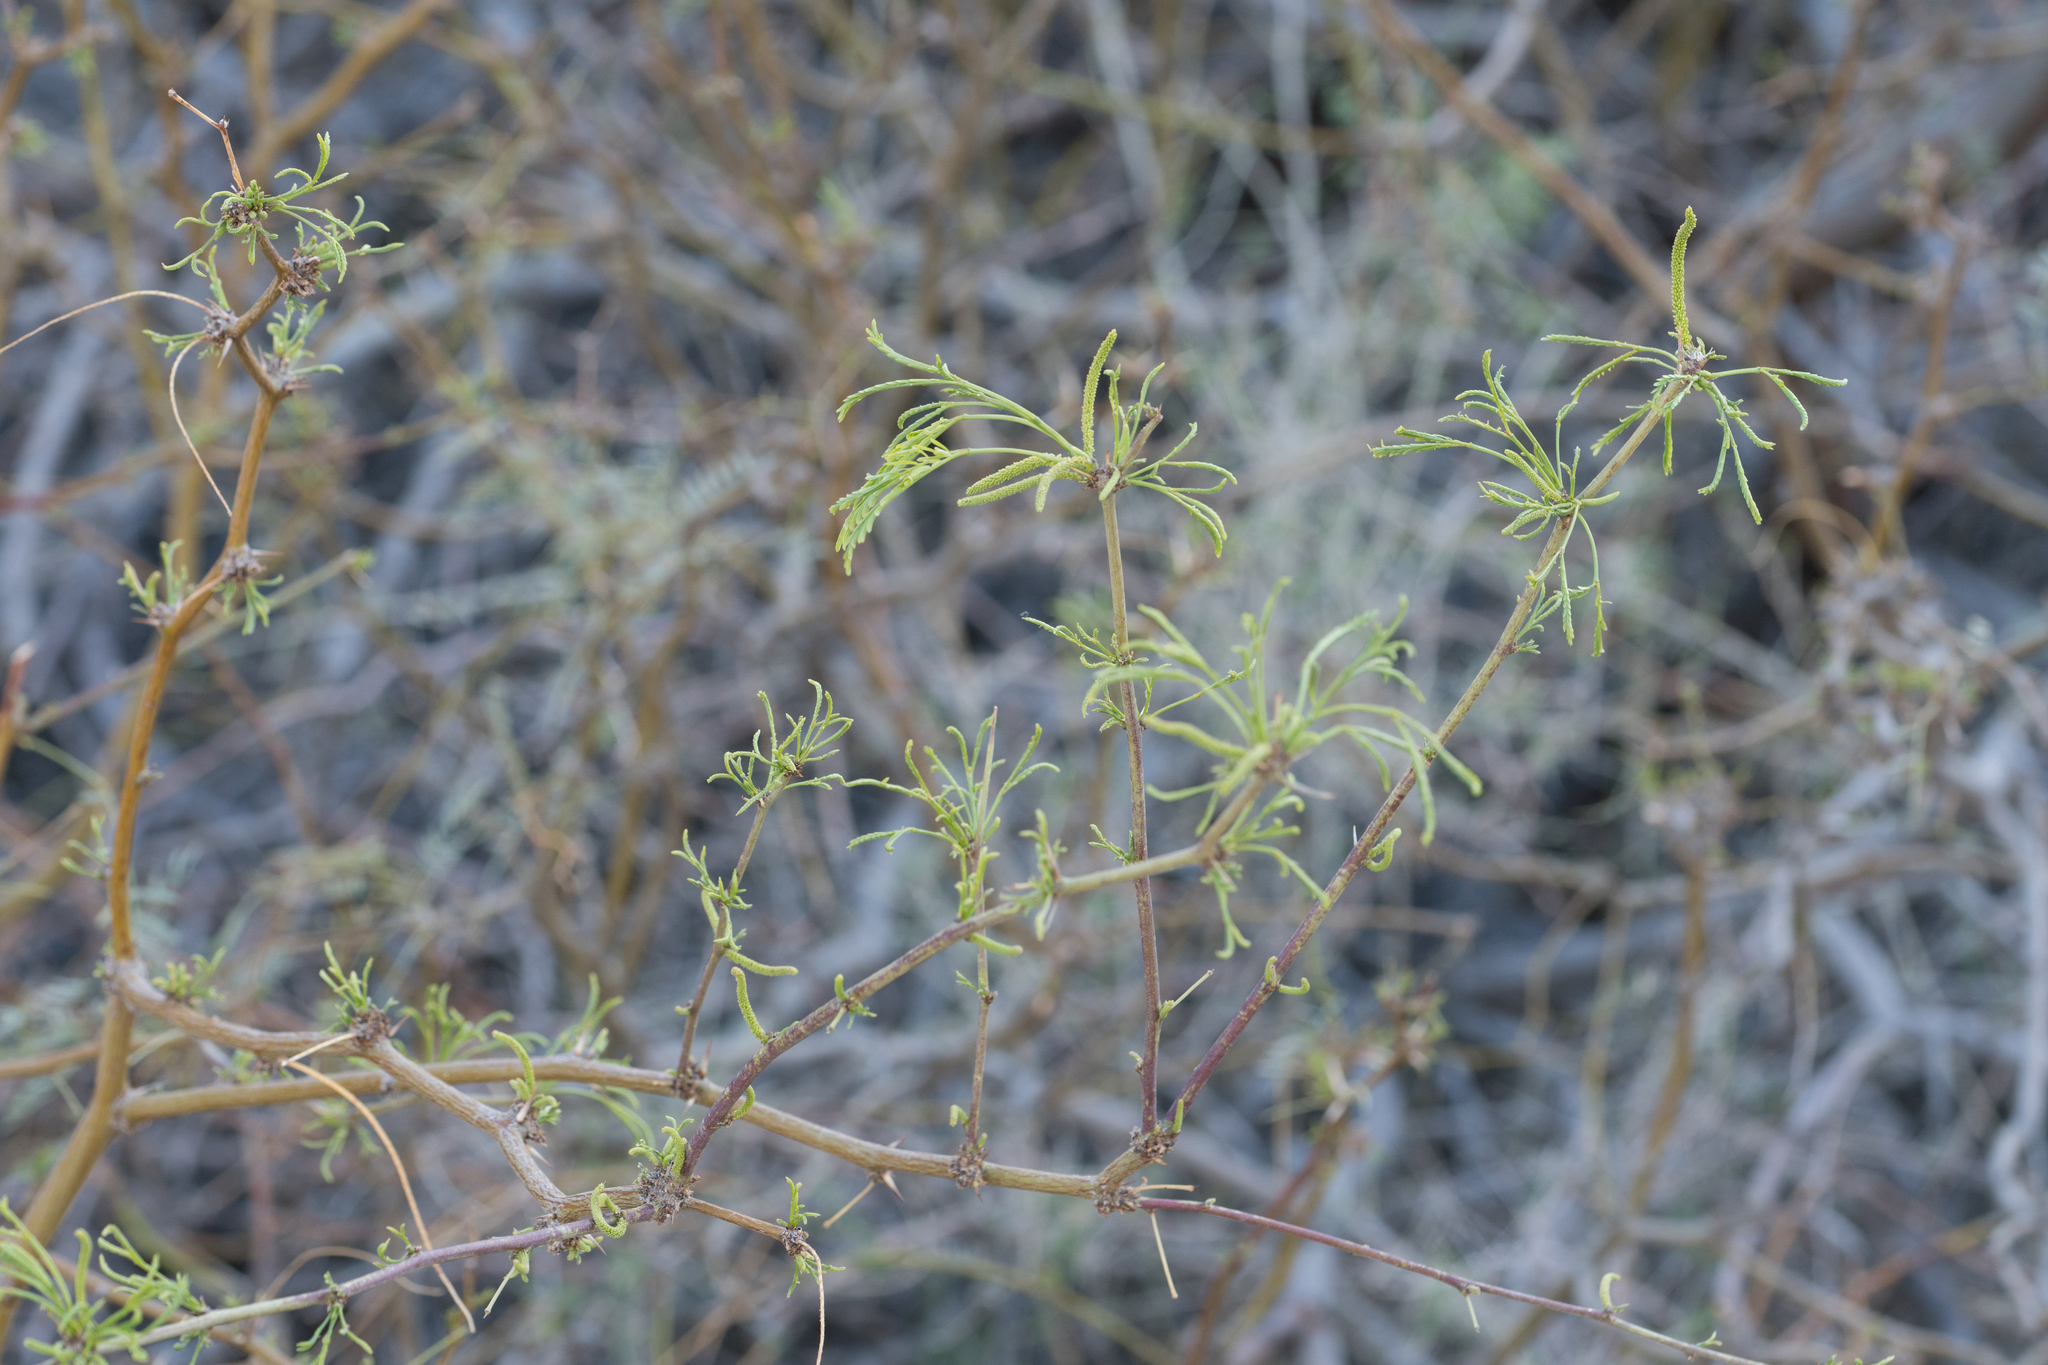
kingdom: Plantae
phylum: Tracheophyta
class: Magnoliopsida
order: Fabales
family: Fabaceae
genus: Prosopis
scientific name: Prosopis pubescens
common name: Screw-bean
